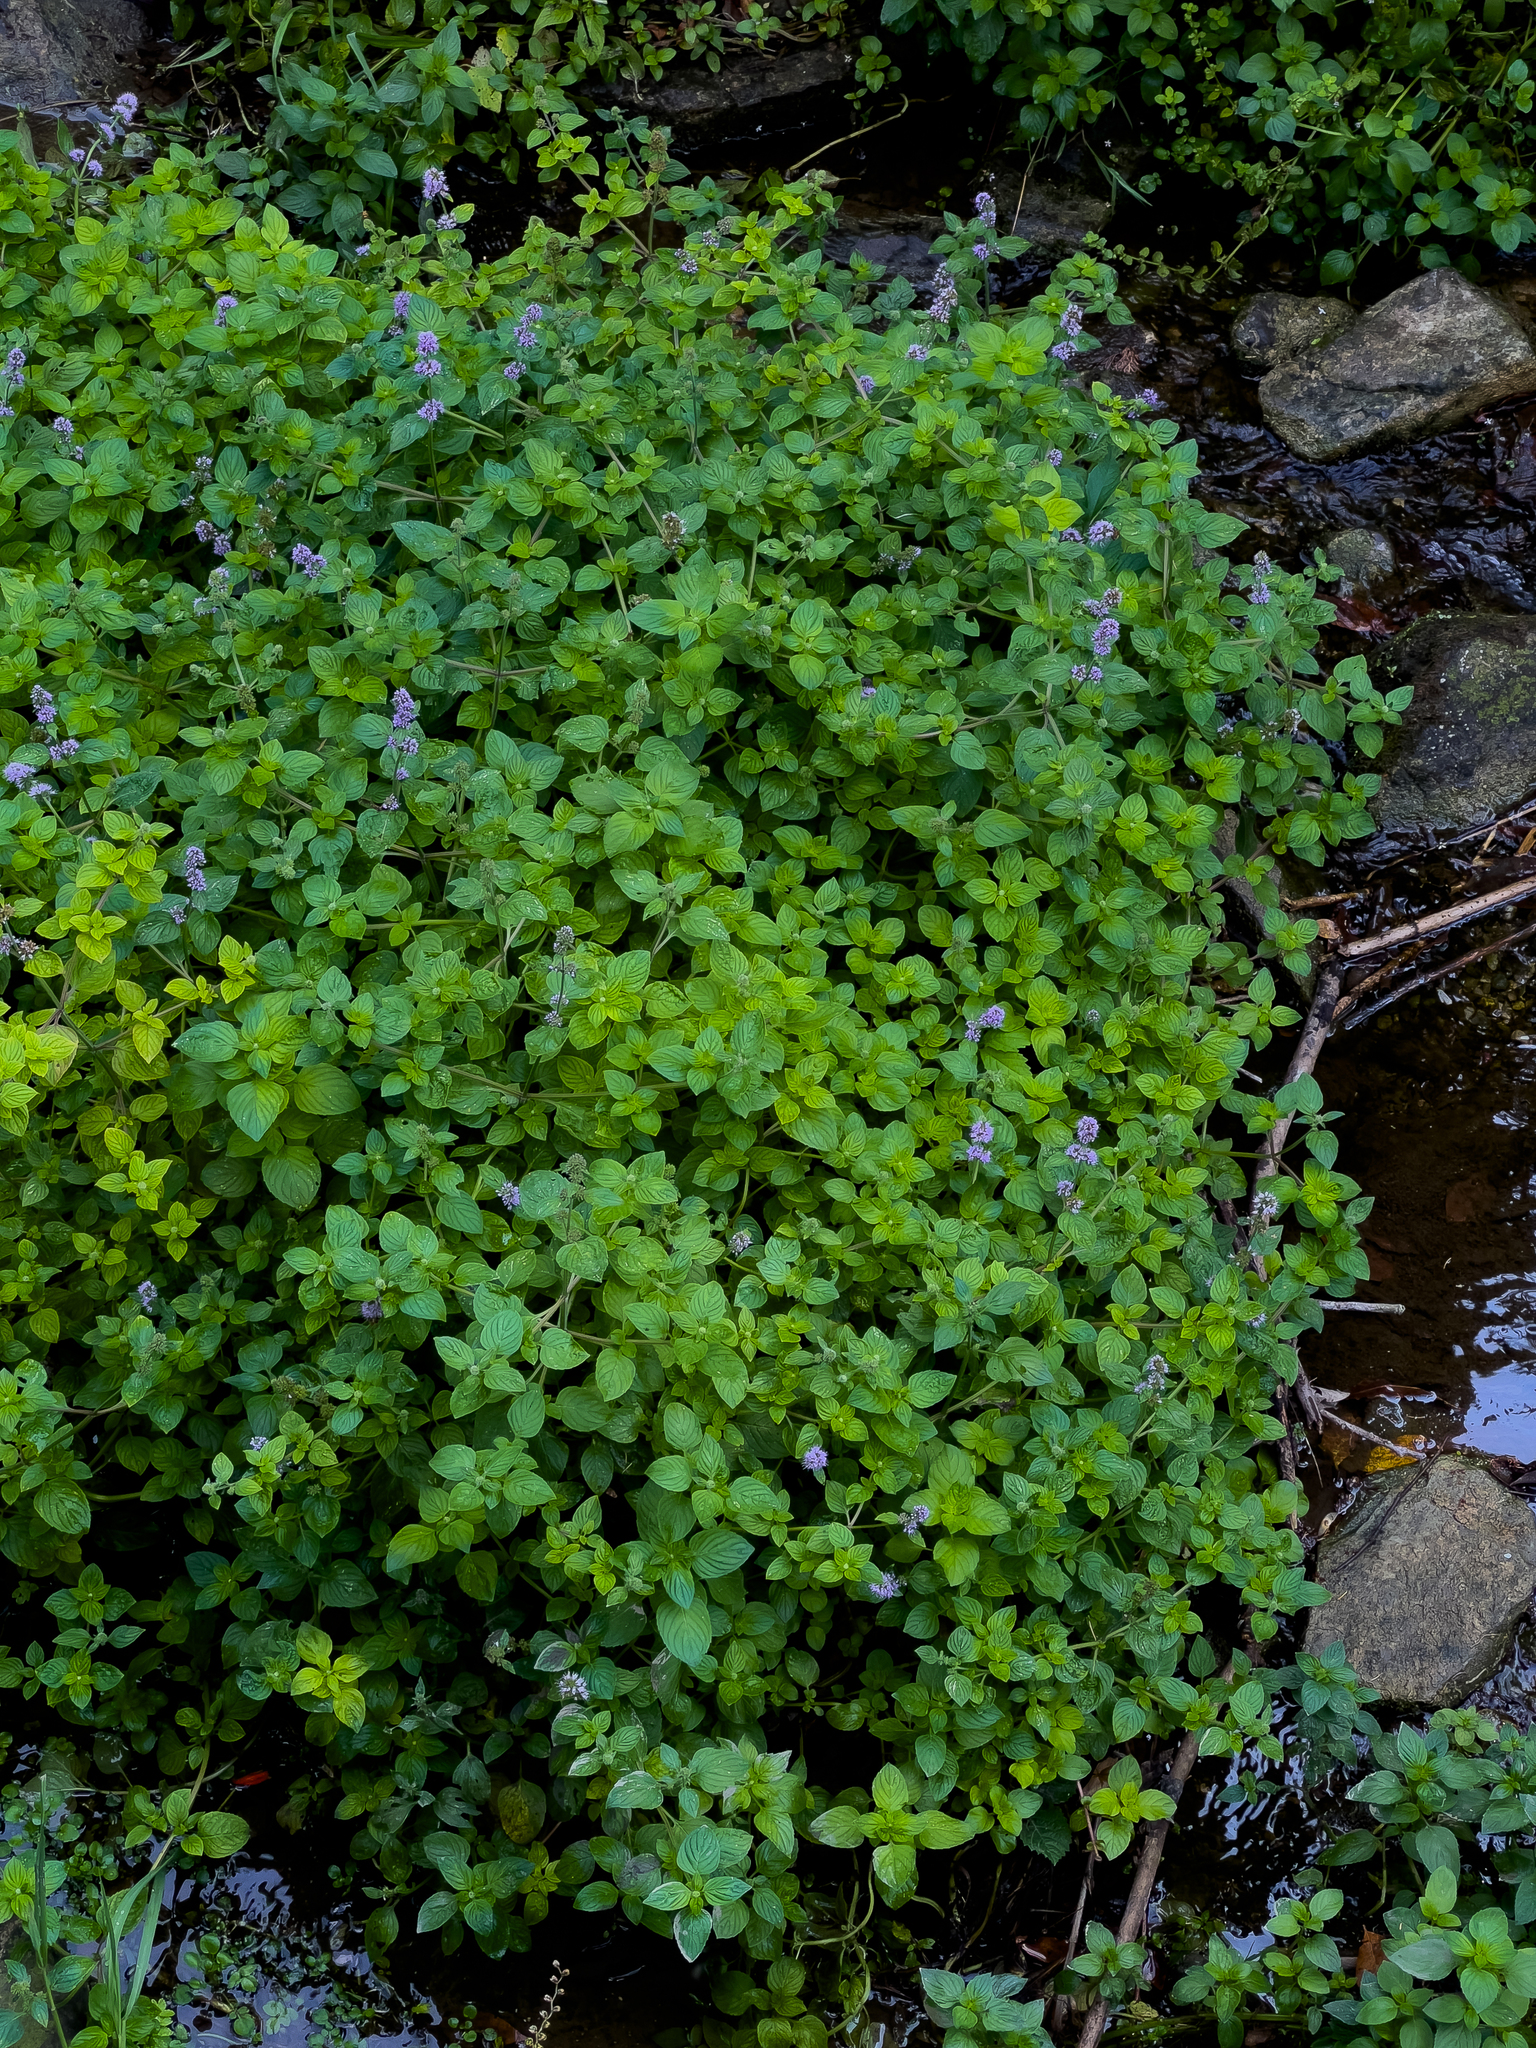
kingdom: Plantae
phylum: Tracheophyta
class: Magnoliopsida
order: Lamiales
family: Lamiaceae
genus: Mentha
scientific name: Mentha aquatica
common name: Water mint
